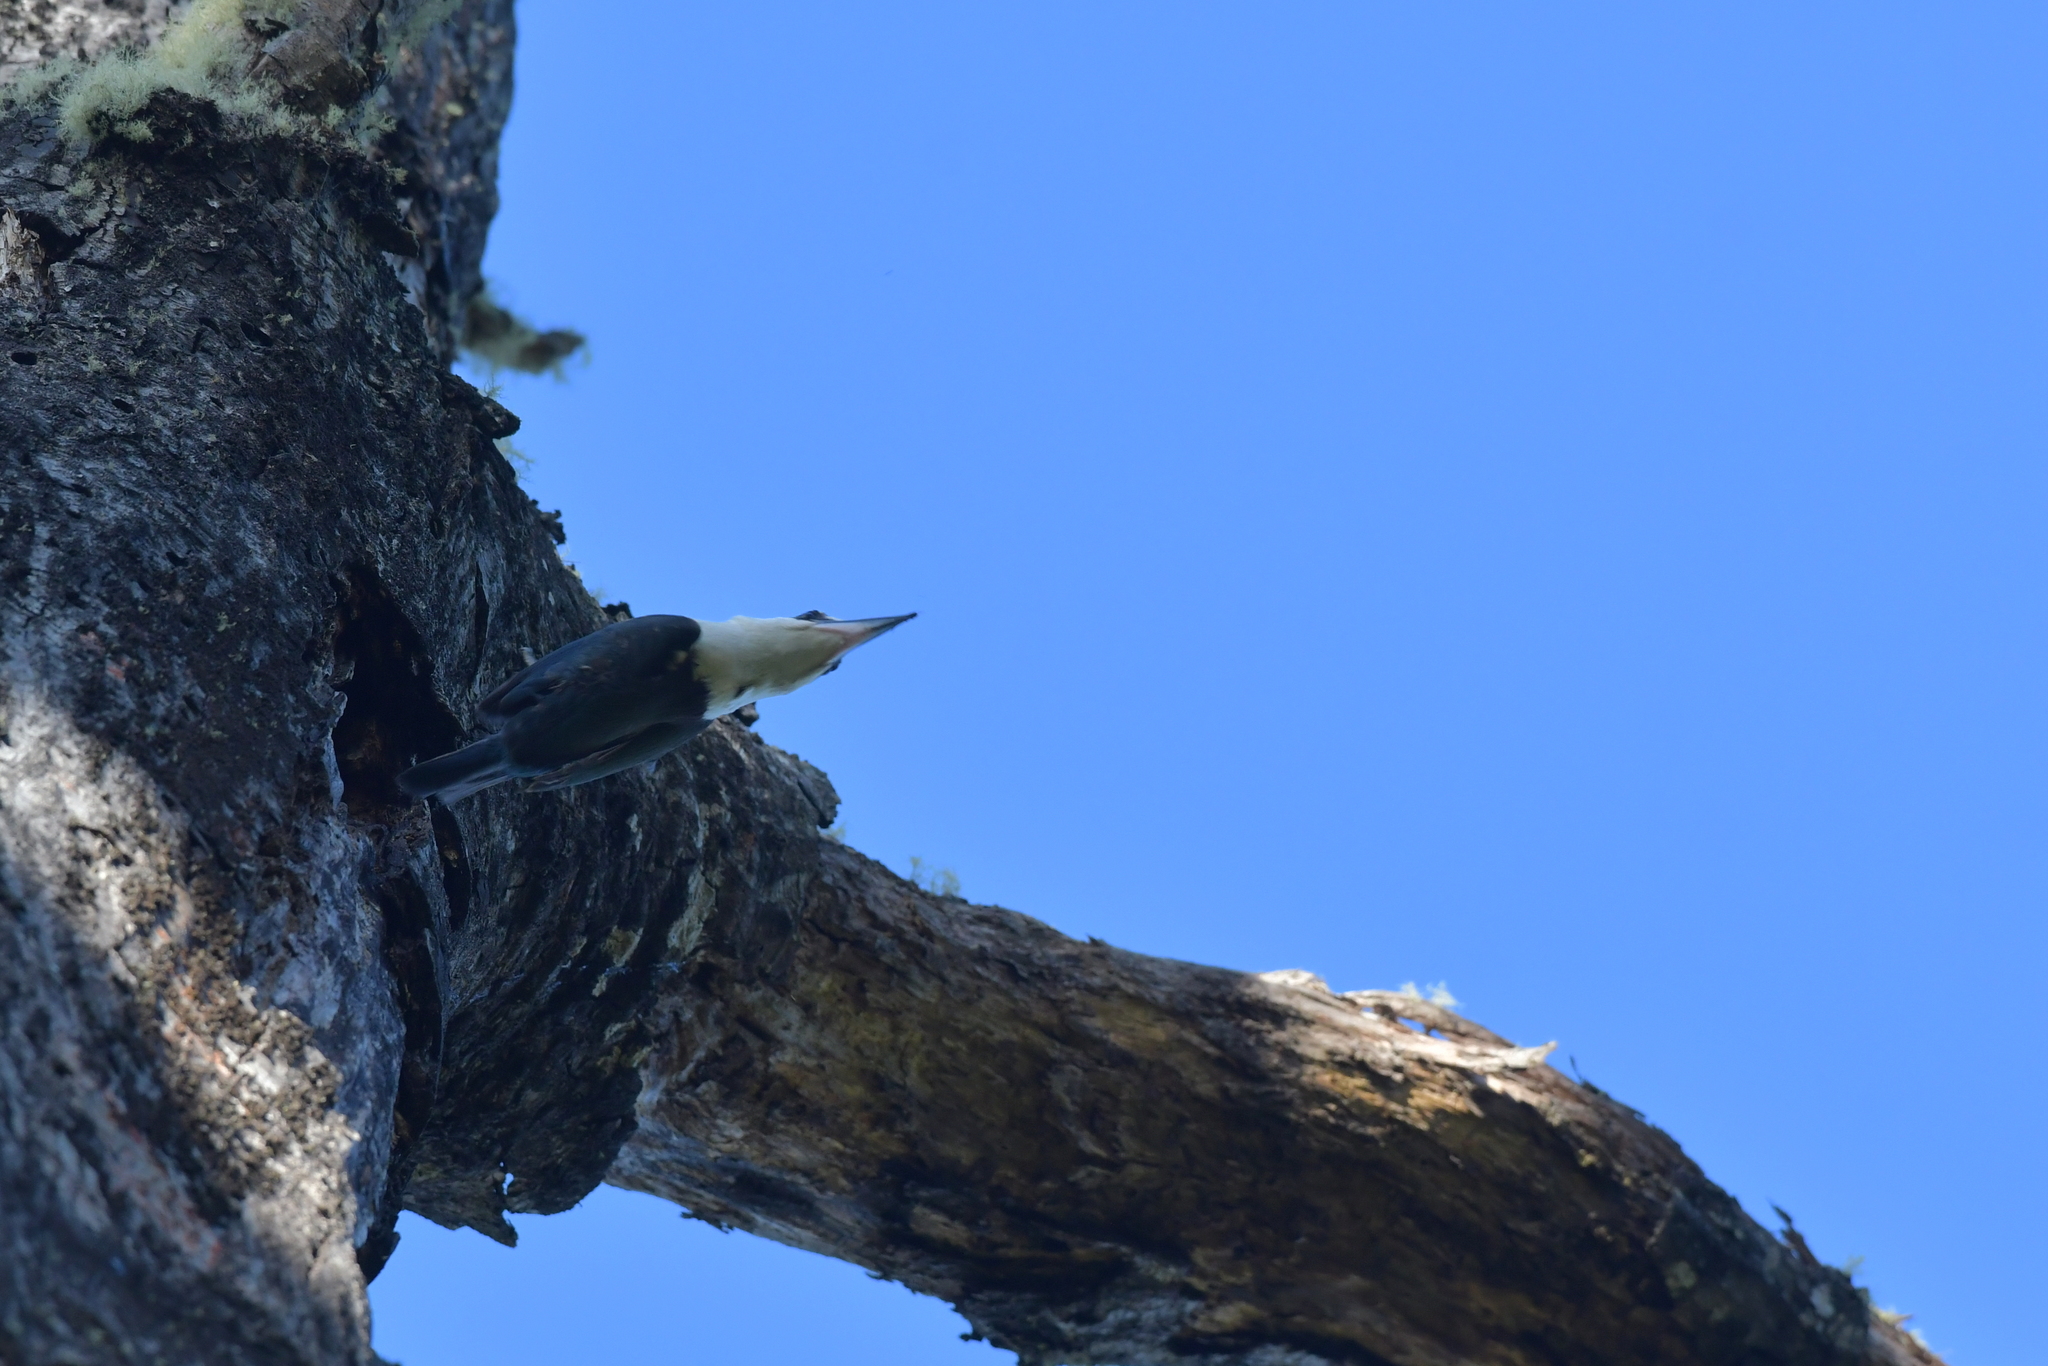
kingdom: Animalia
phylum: Chordata
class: Aves
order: Coraciiformes
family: Alcedinidae
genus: Todiramphus
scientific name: Todiramphus sanctus
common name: Sacred kingfisher
